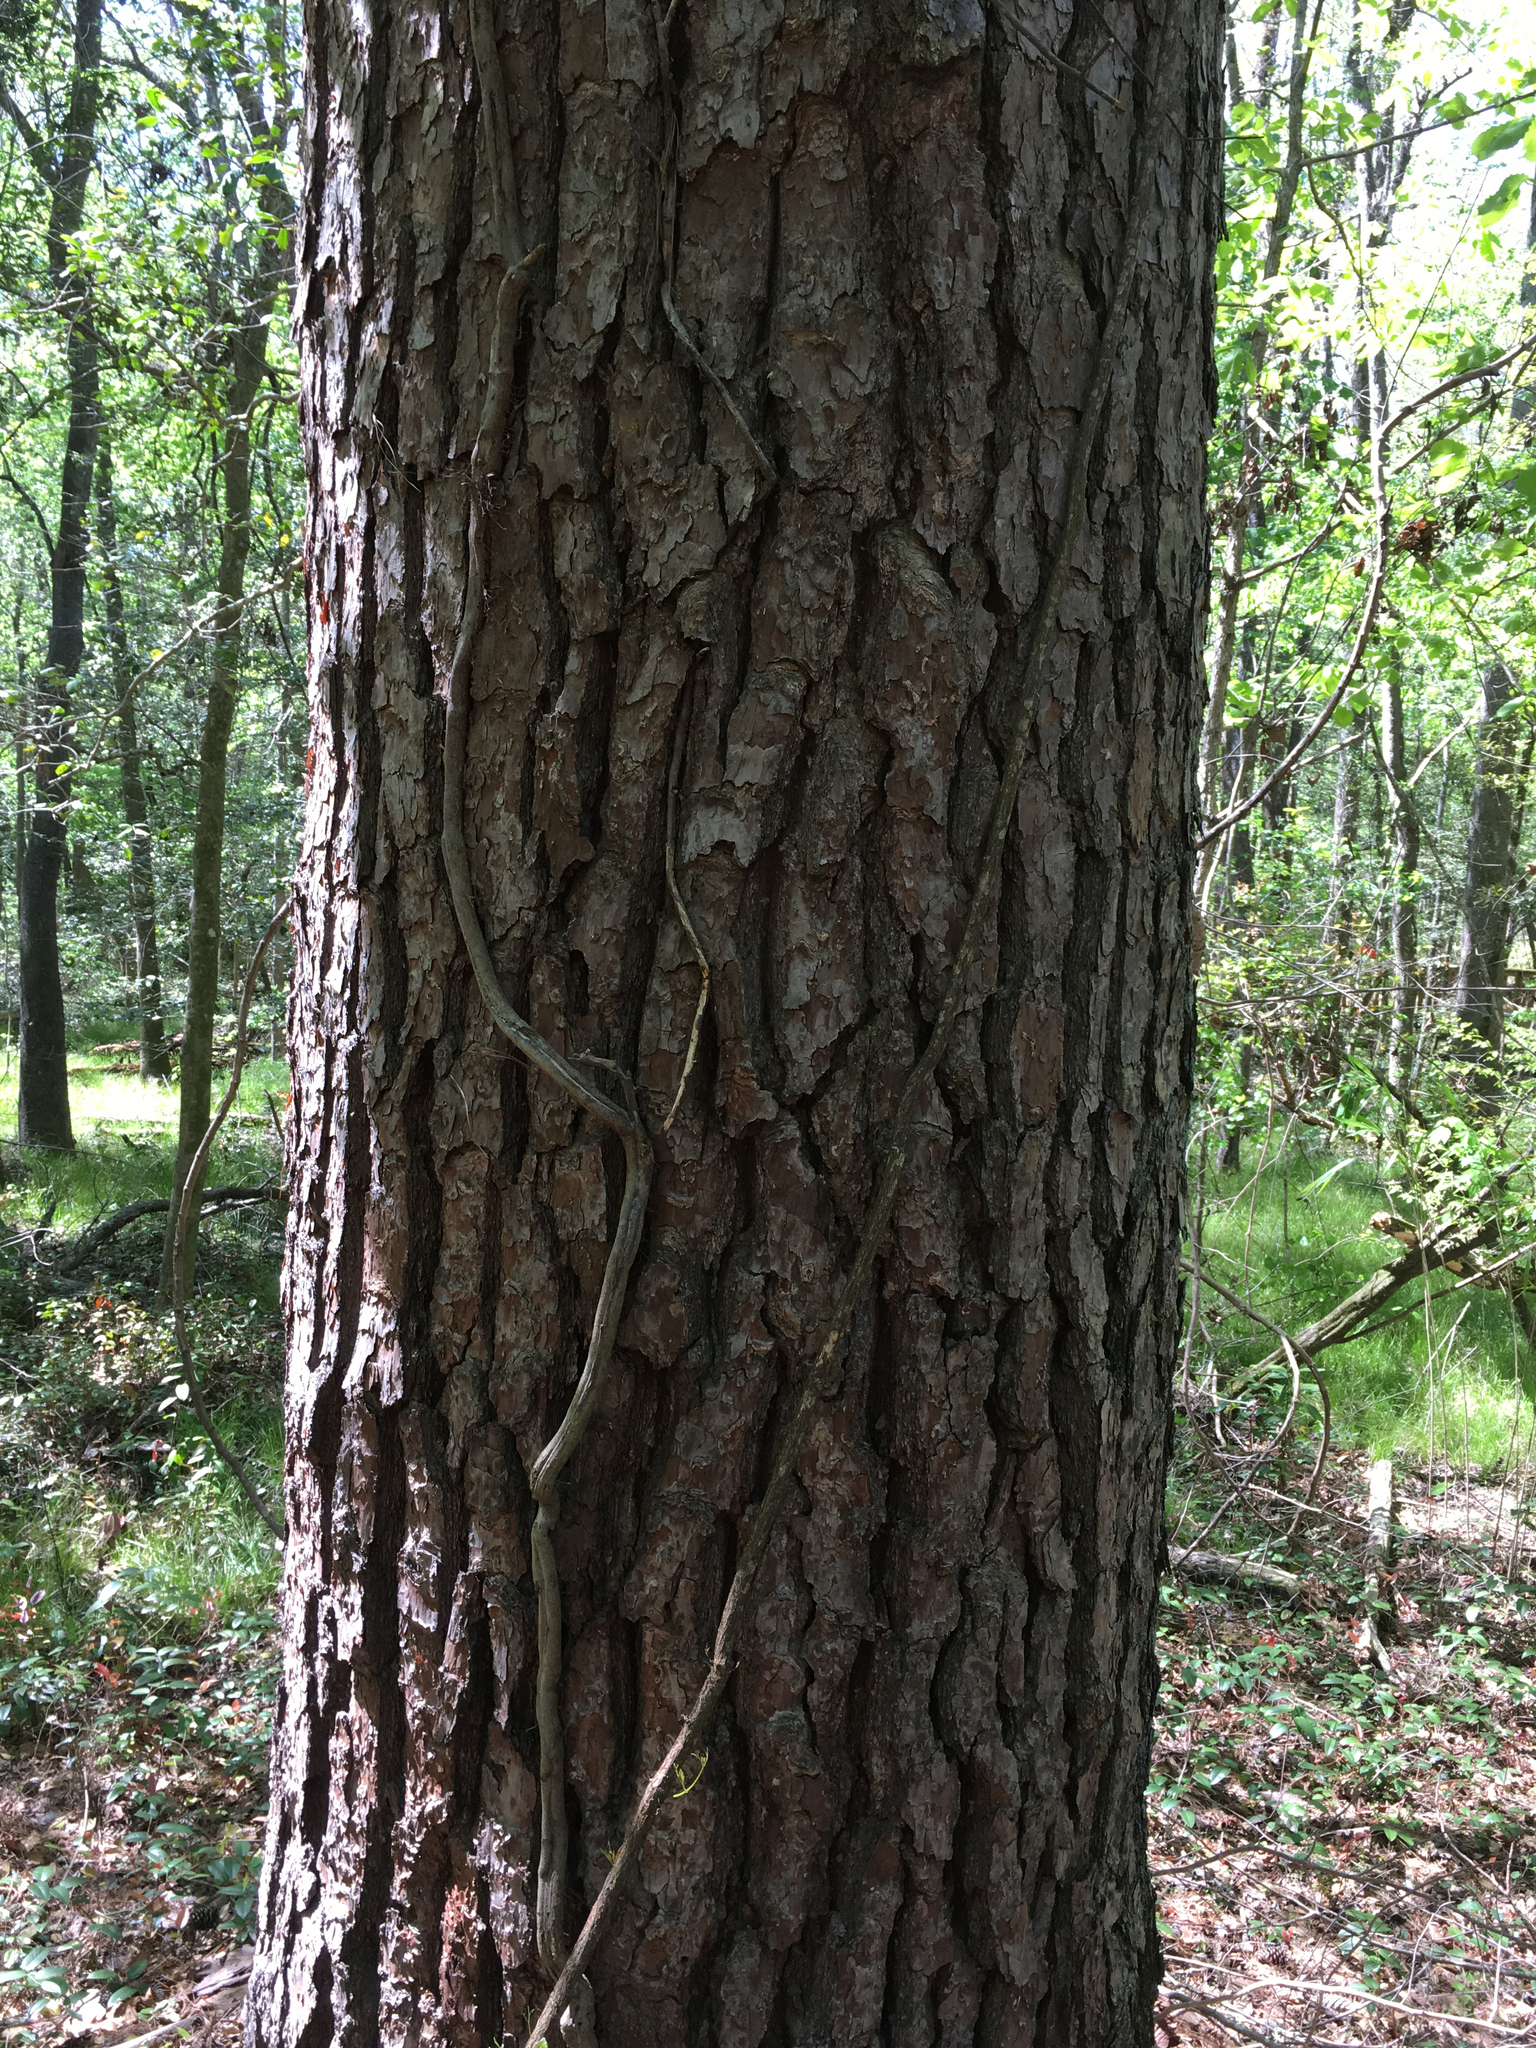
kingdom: Plantae
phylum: Tracheophyta
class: Pinopsida
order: Pinales
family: Pinaceae
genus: Pinus
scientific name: Pinus taeda
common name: Loblolly pine
